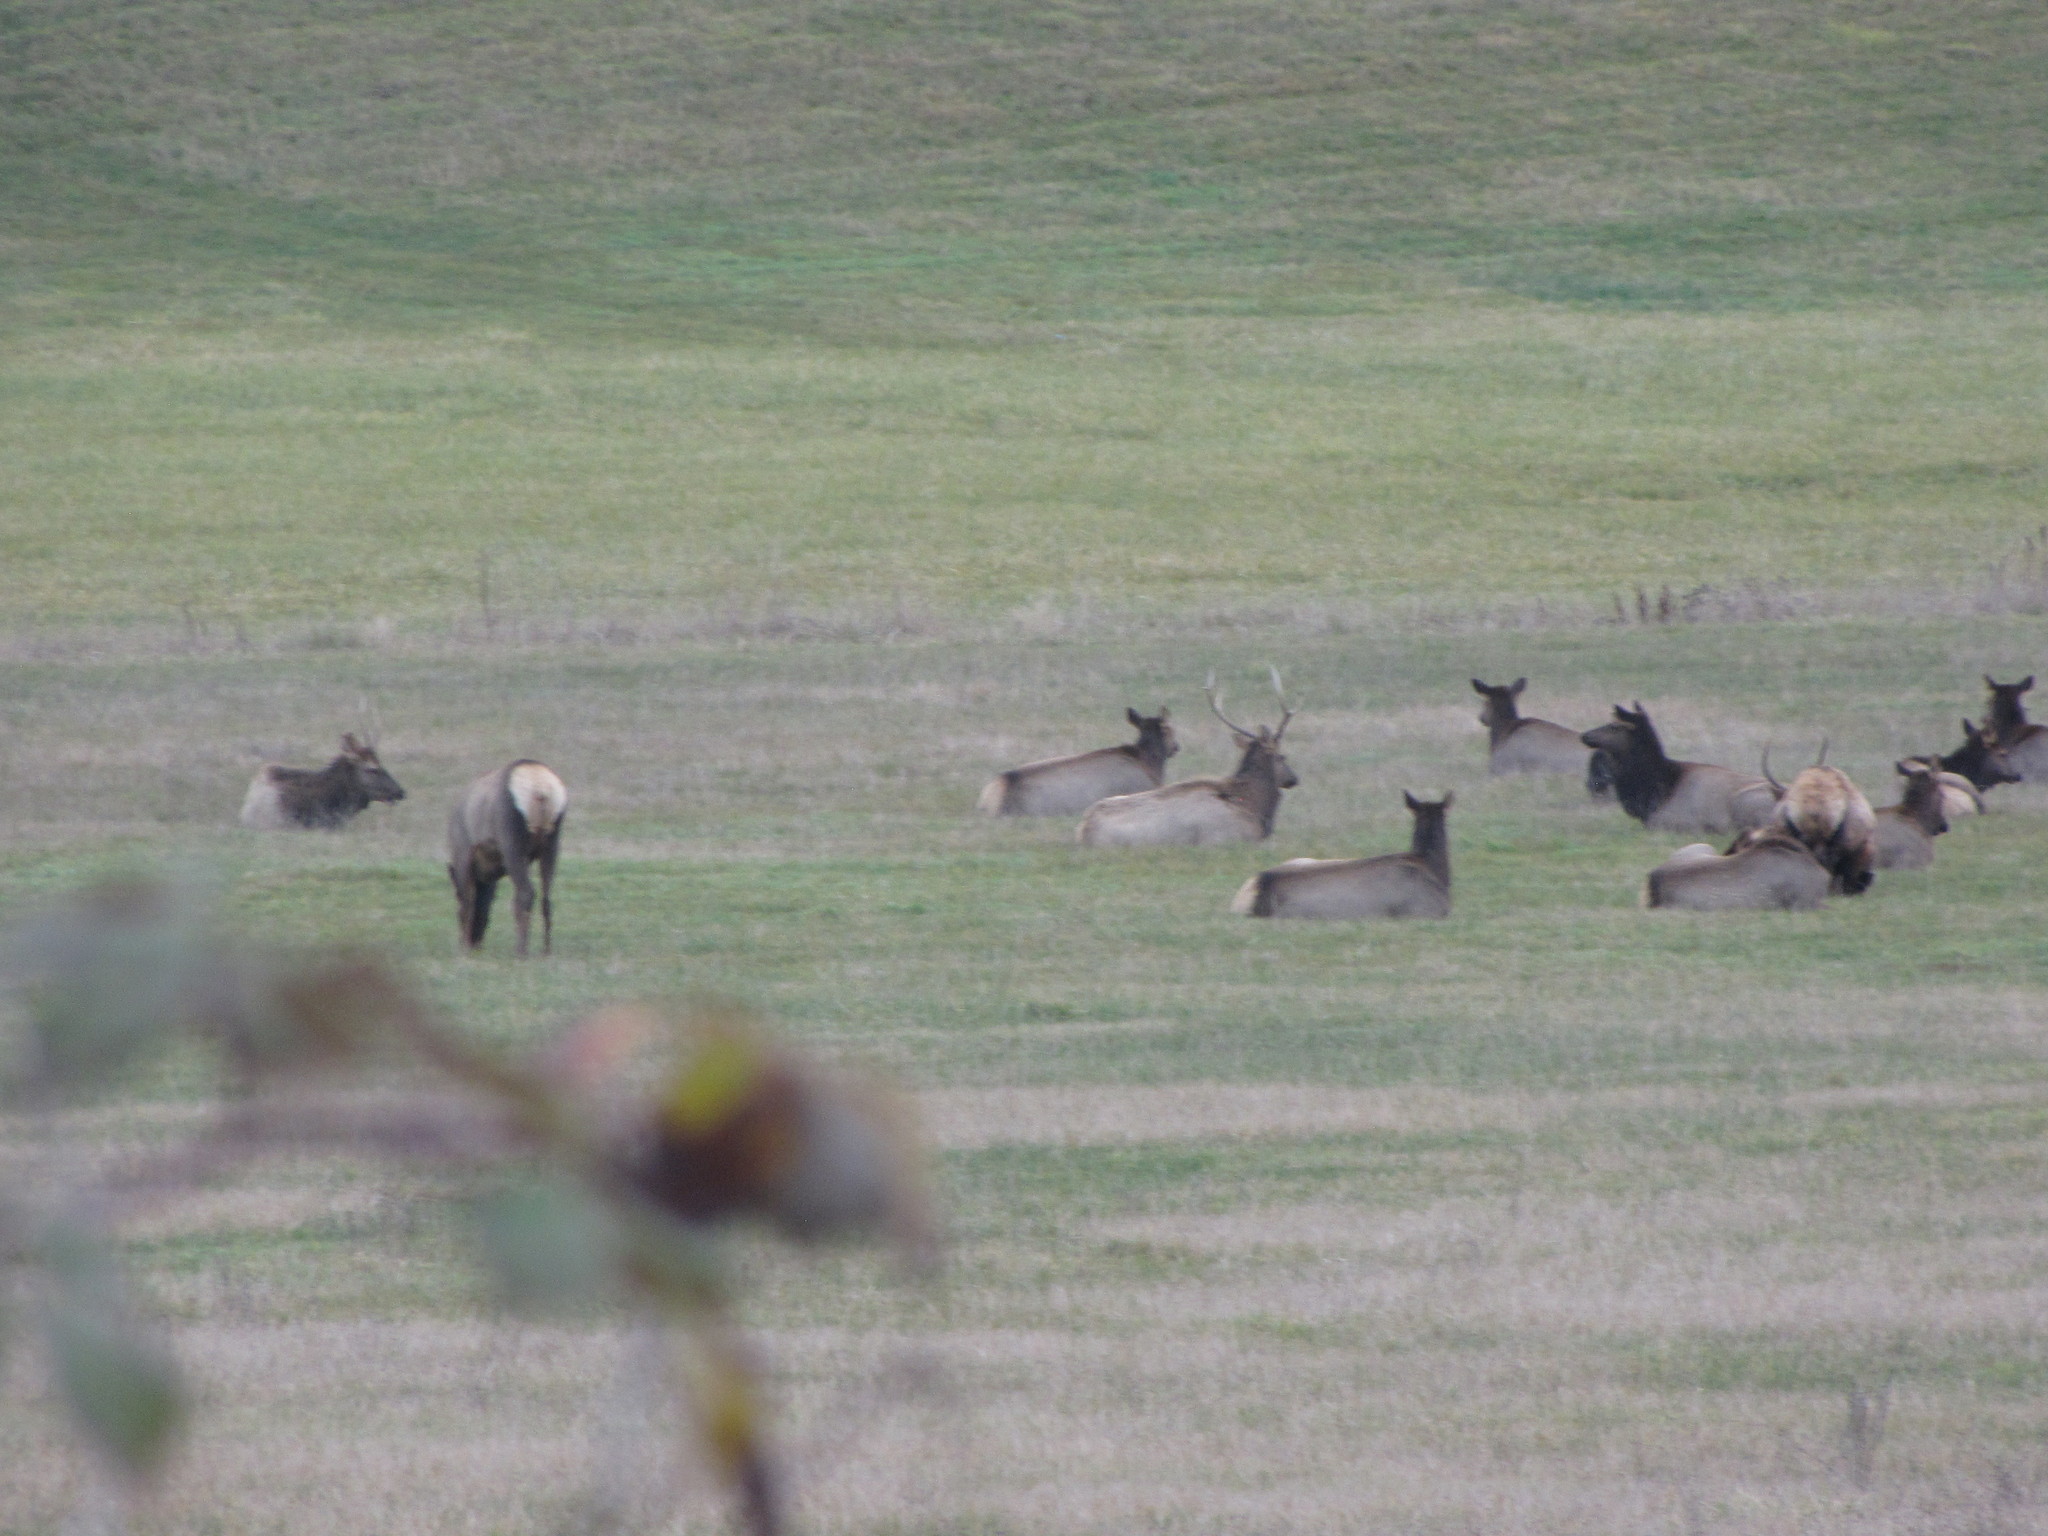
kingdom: Animalia
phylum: Chordata
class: Mammalia
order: Artiodactyla
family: Cervidae
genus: Cervus
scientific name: Cervus elaphus
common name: Red deer
